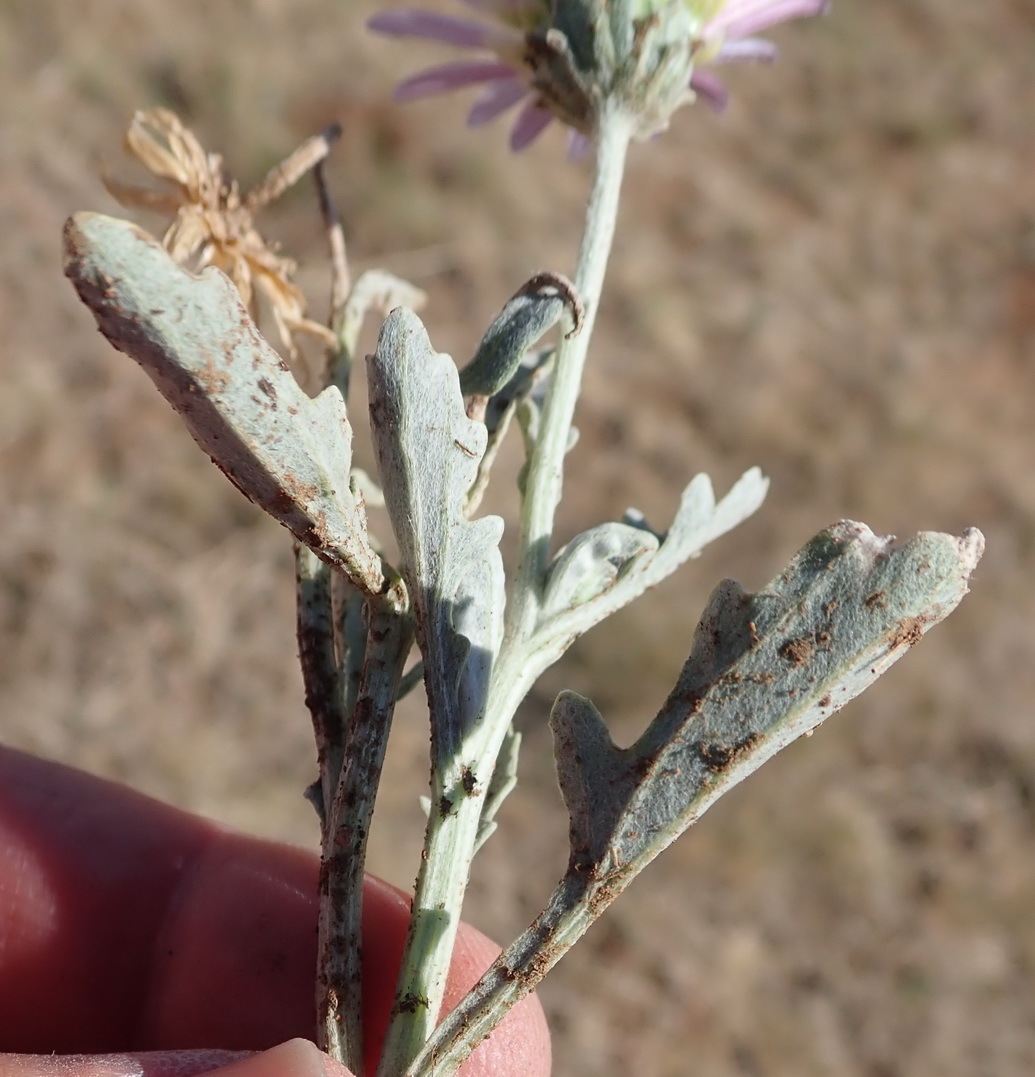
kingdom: Plantae
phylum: Tracheophyta
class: Magnoliopsida
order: Asterales
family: Asteraceae
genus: Arctotis
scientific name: Arctotis venusta
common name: African daisy
